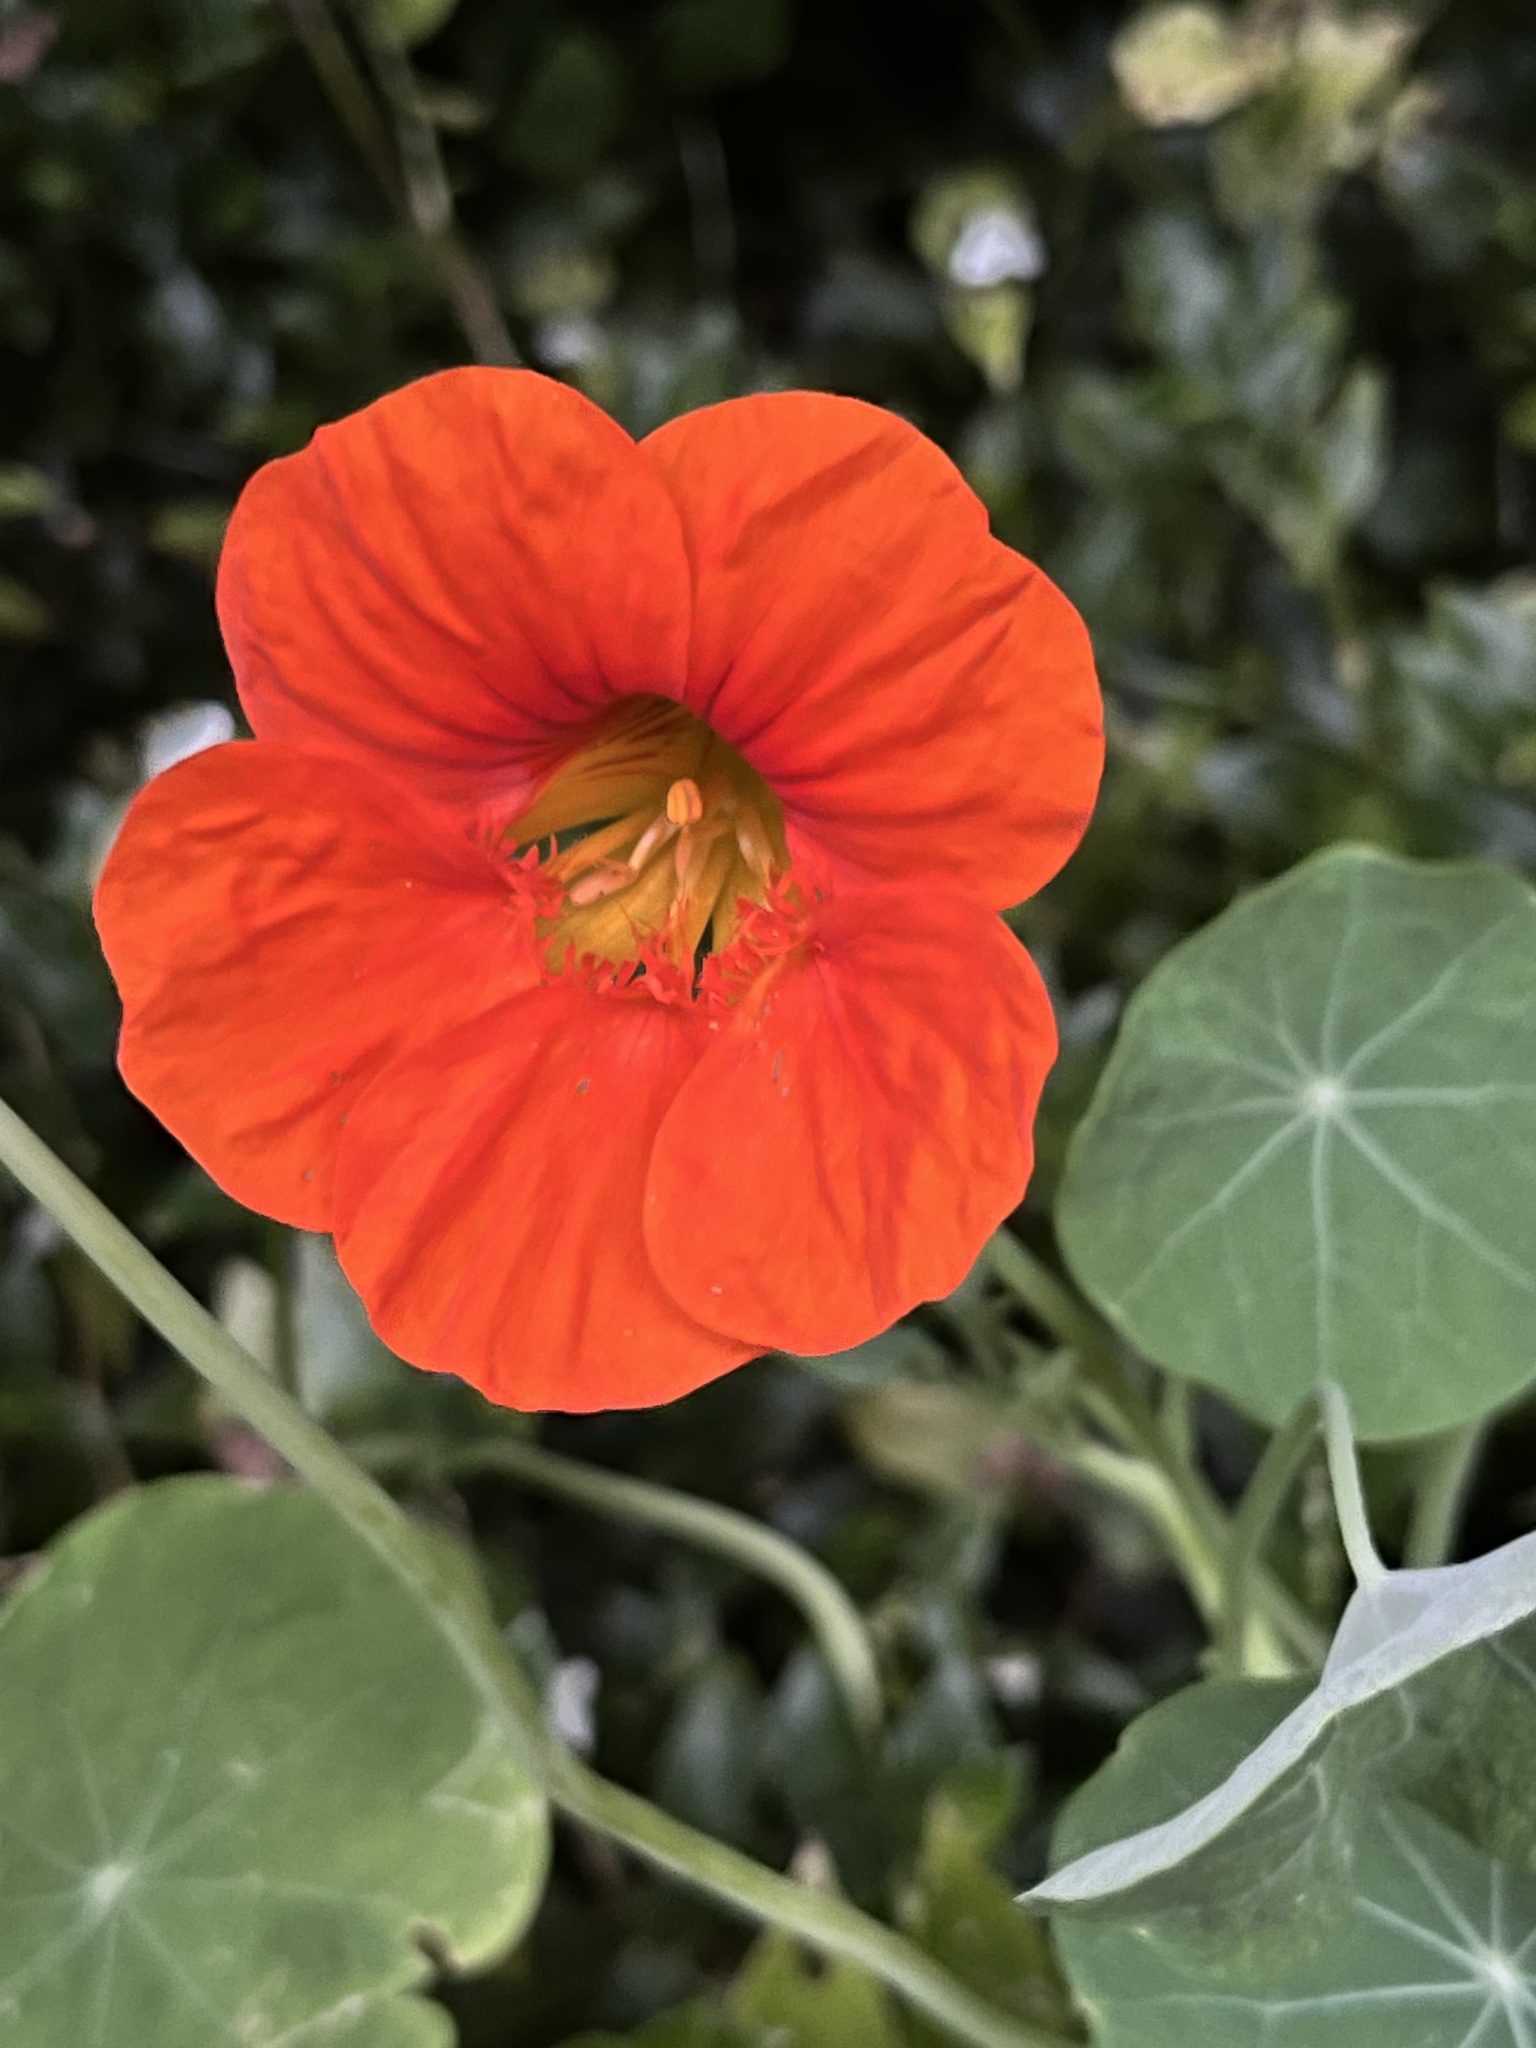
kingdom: Plantae
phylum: Tracheophyta
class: Magnoliopsida
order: Brassicales
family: Tropaeolaceae
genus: Tropaeolum
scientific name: Tropaeolum majus
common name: Nasturtium
